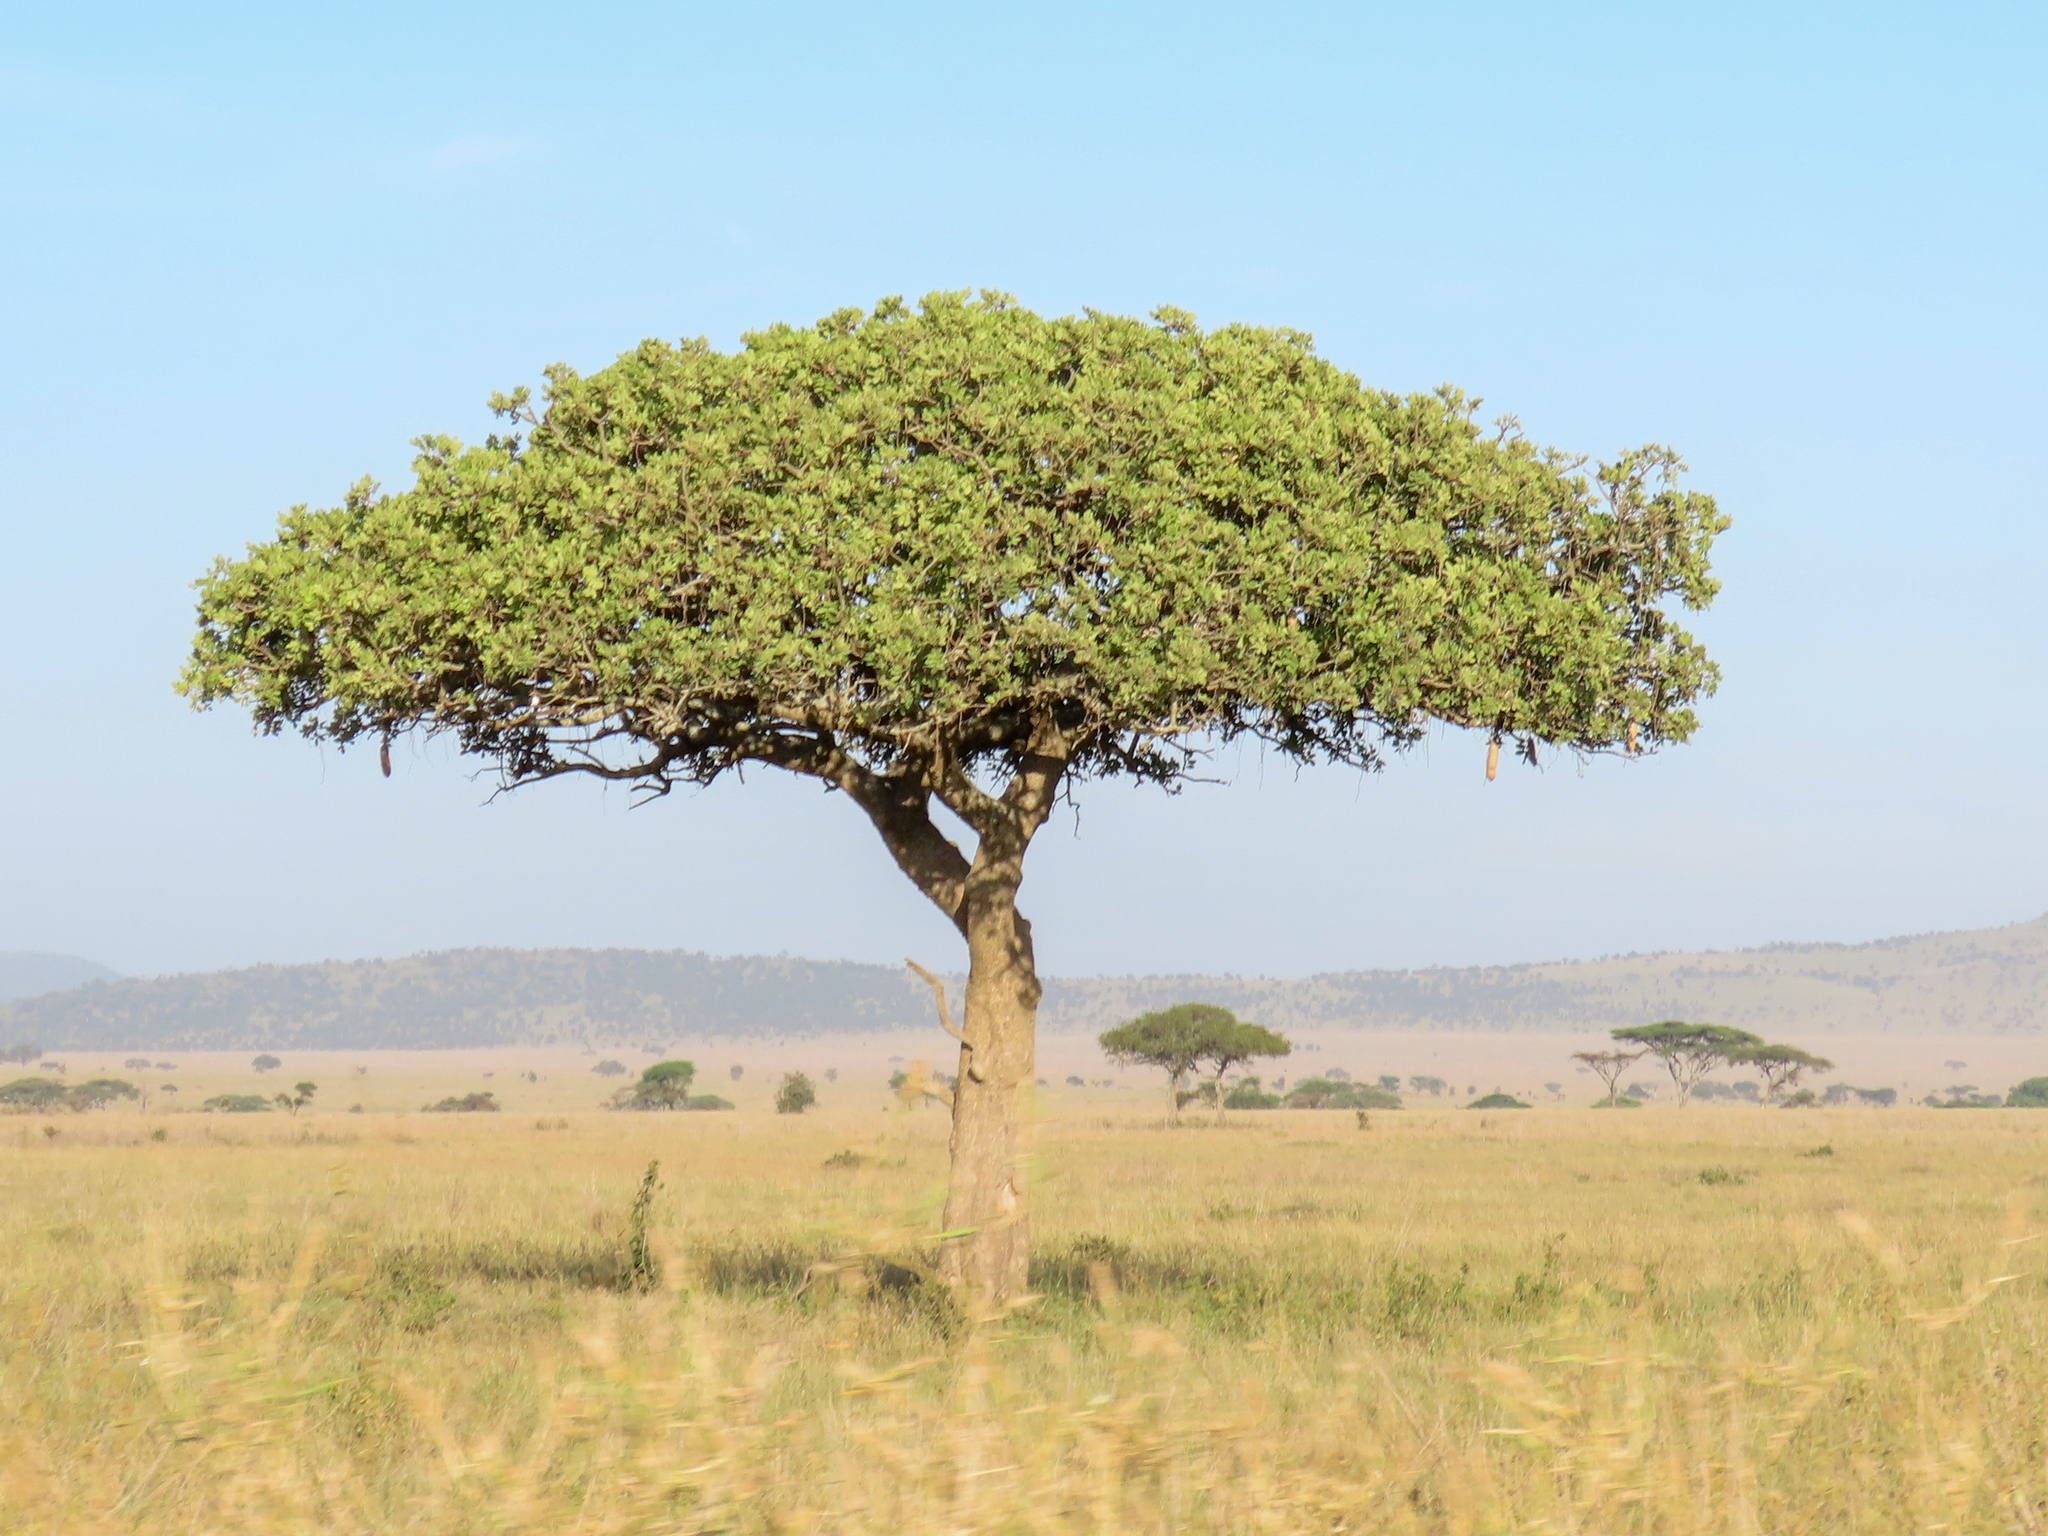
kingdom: Plantae
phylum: Tracheophyta
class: Magnoliopsida
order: Lamiales
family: Bignoniaceae
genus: Kigelia
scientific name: Kigelia africana
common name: Sausage tree
